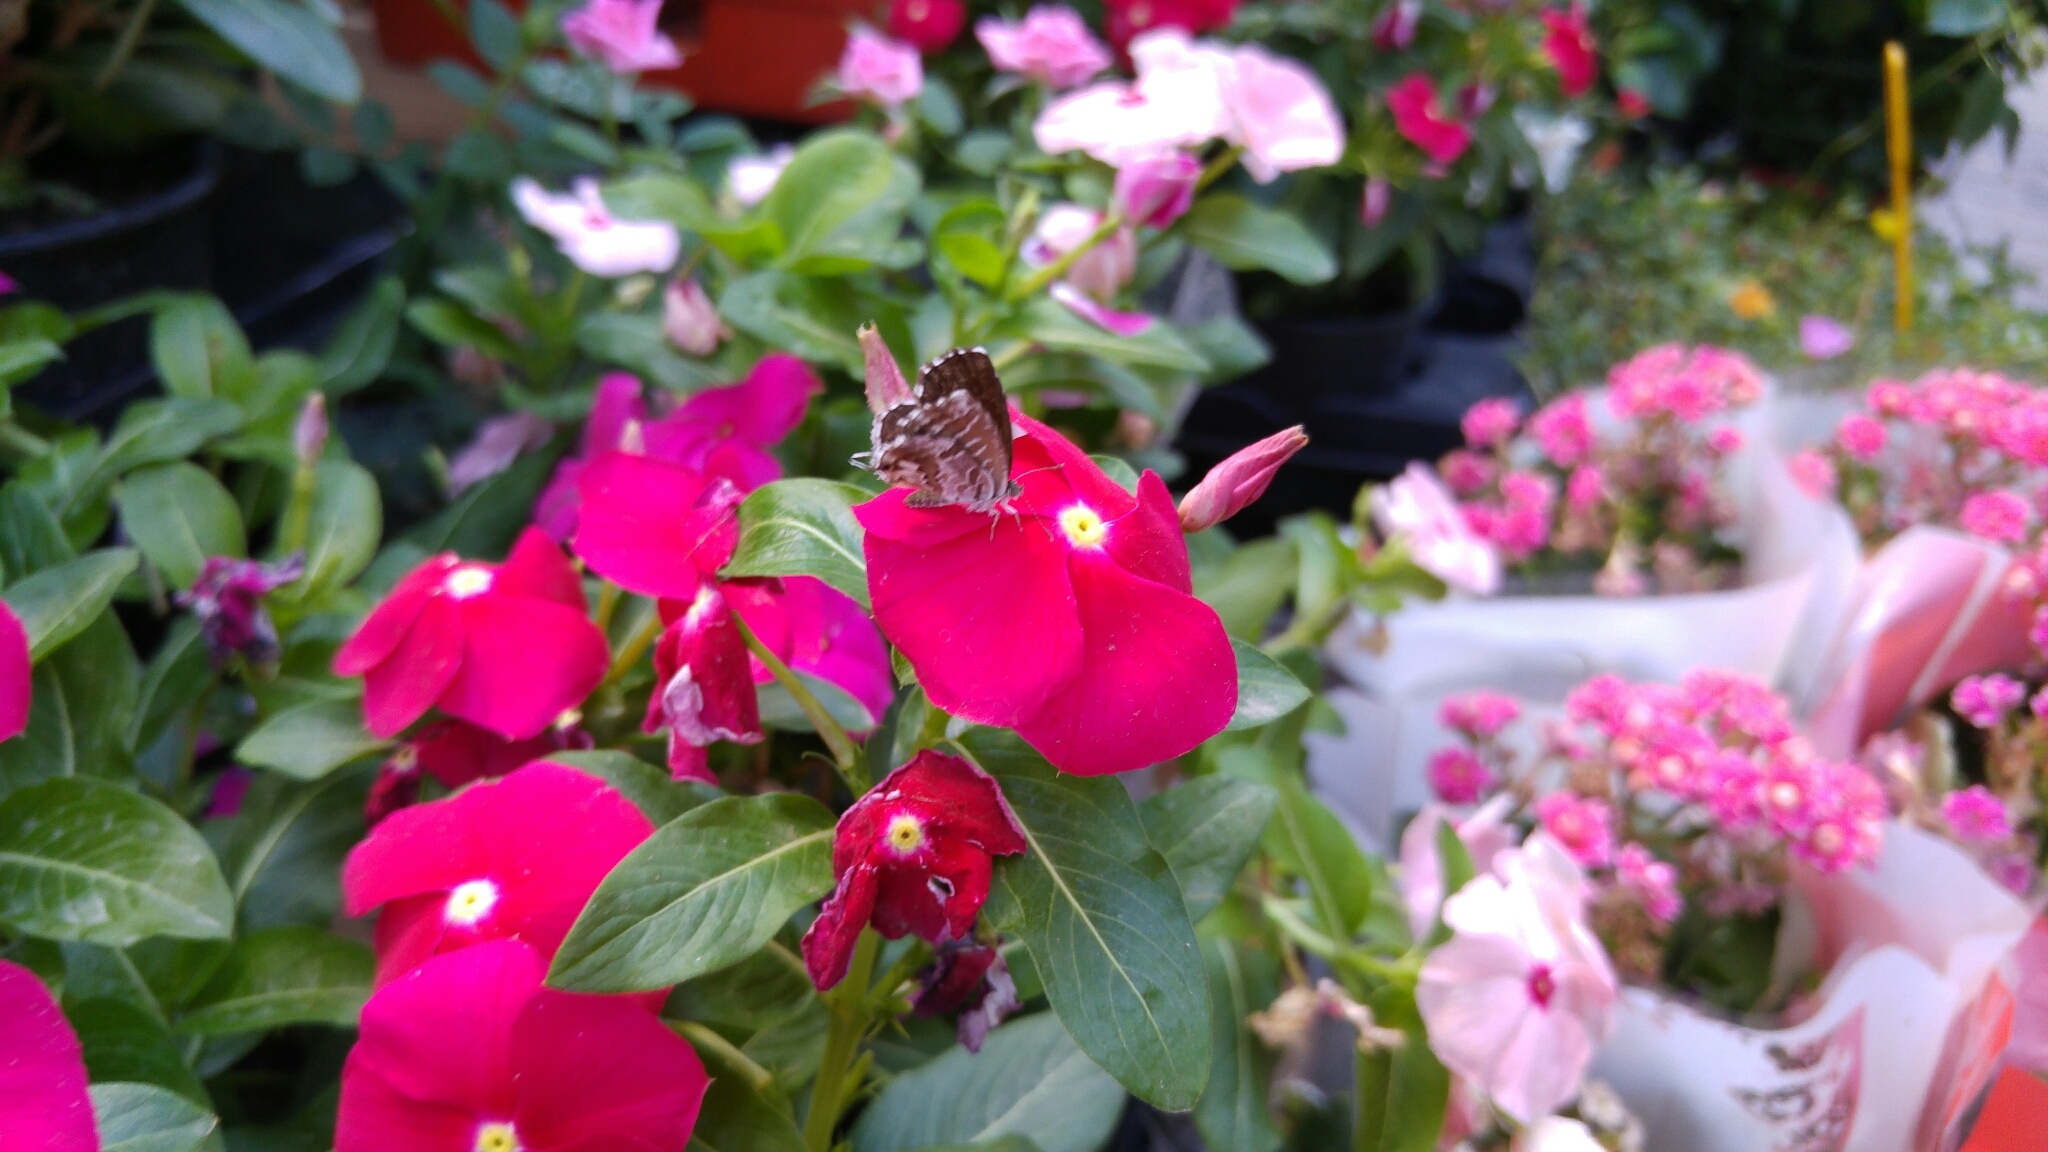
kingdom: Animalia
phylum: Arthropoda
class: Insecta
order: Lepidoptera
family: Lycaenidae
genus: Cacyreus
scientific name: Cacyreus marshalli
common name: Geranium bronze
